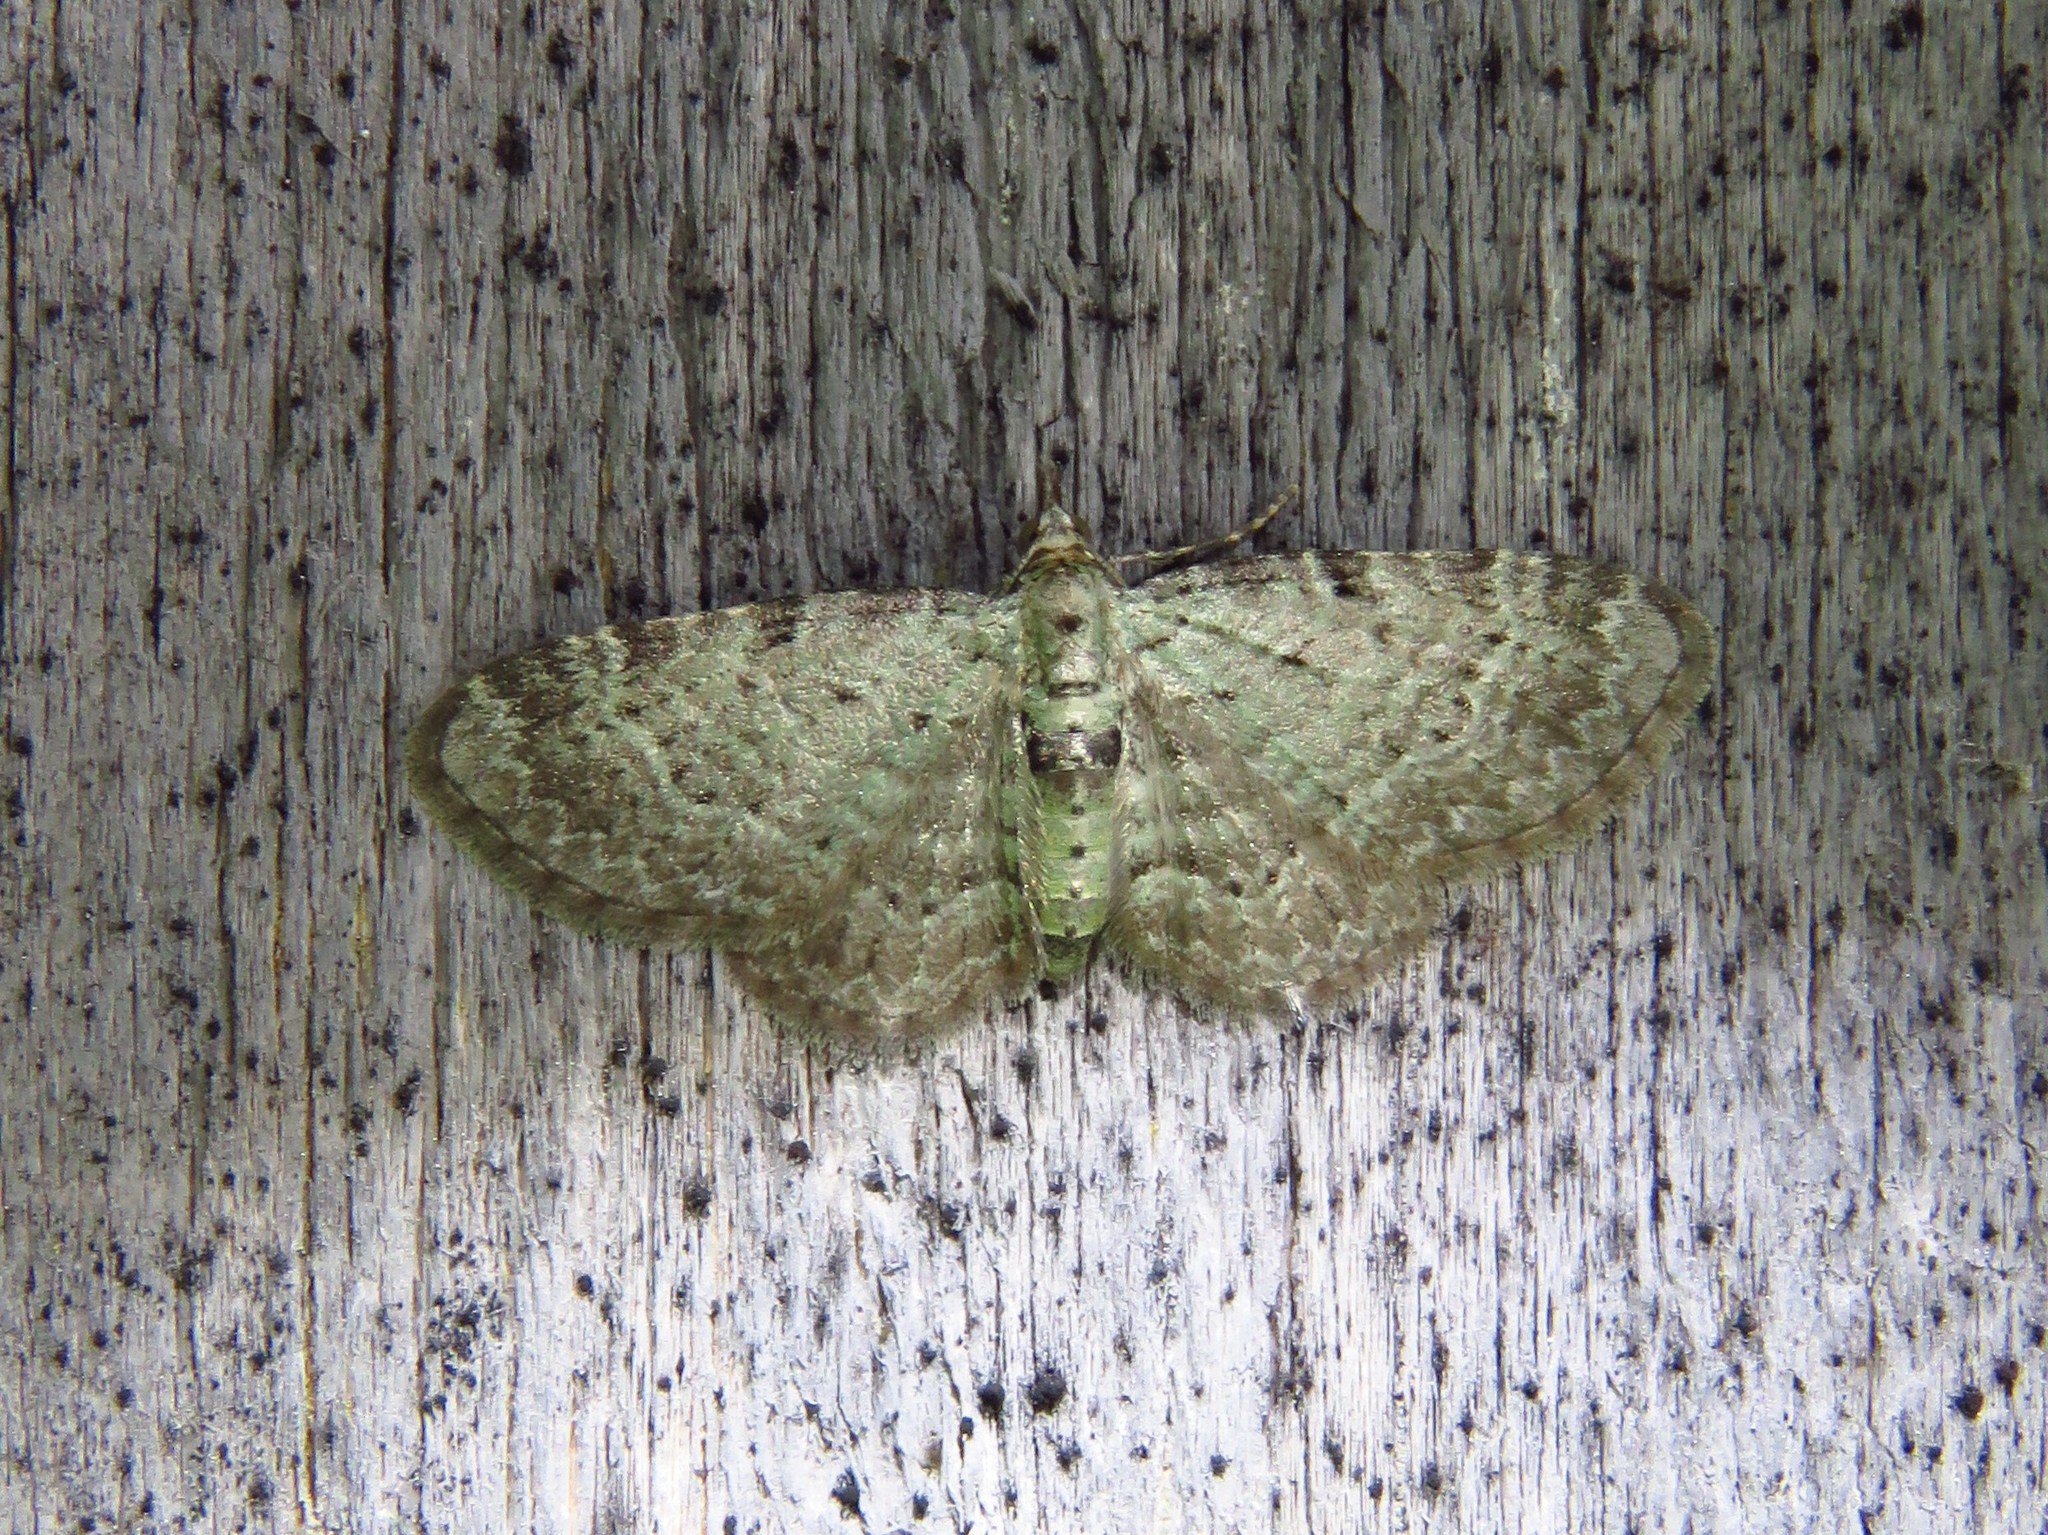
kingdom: Animalia
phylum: Arthropoda
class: Insecta
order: Lepidoptera
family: Geometridae
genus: Pasiphila
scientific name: Pasiphila debiliata
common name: Bilberry pug
